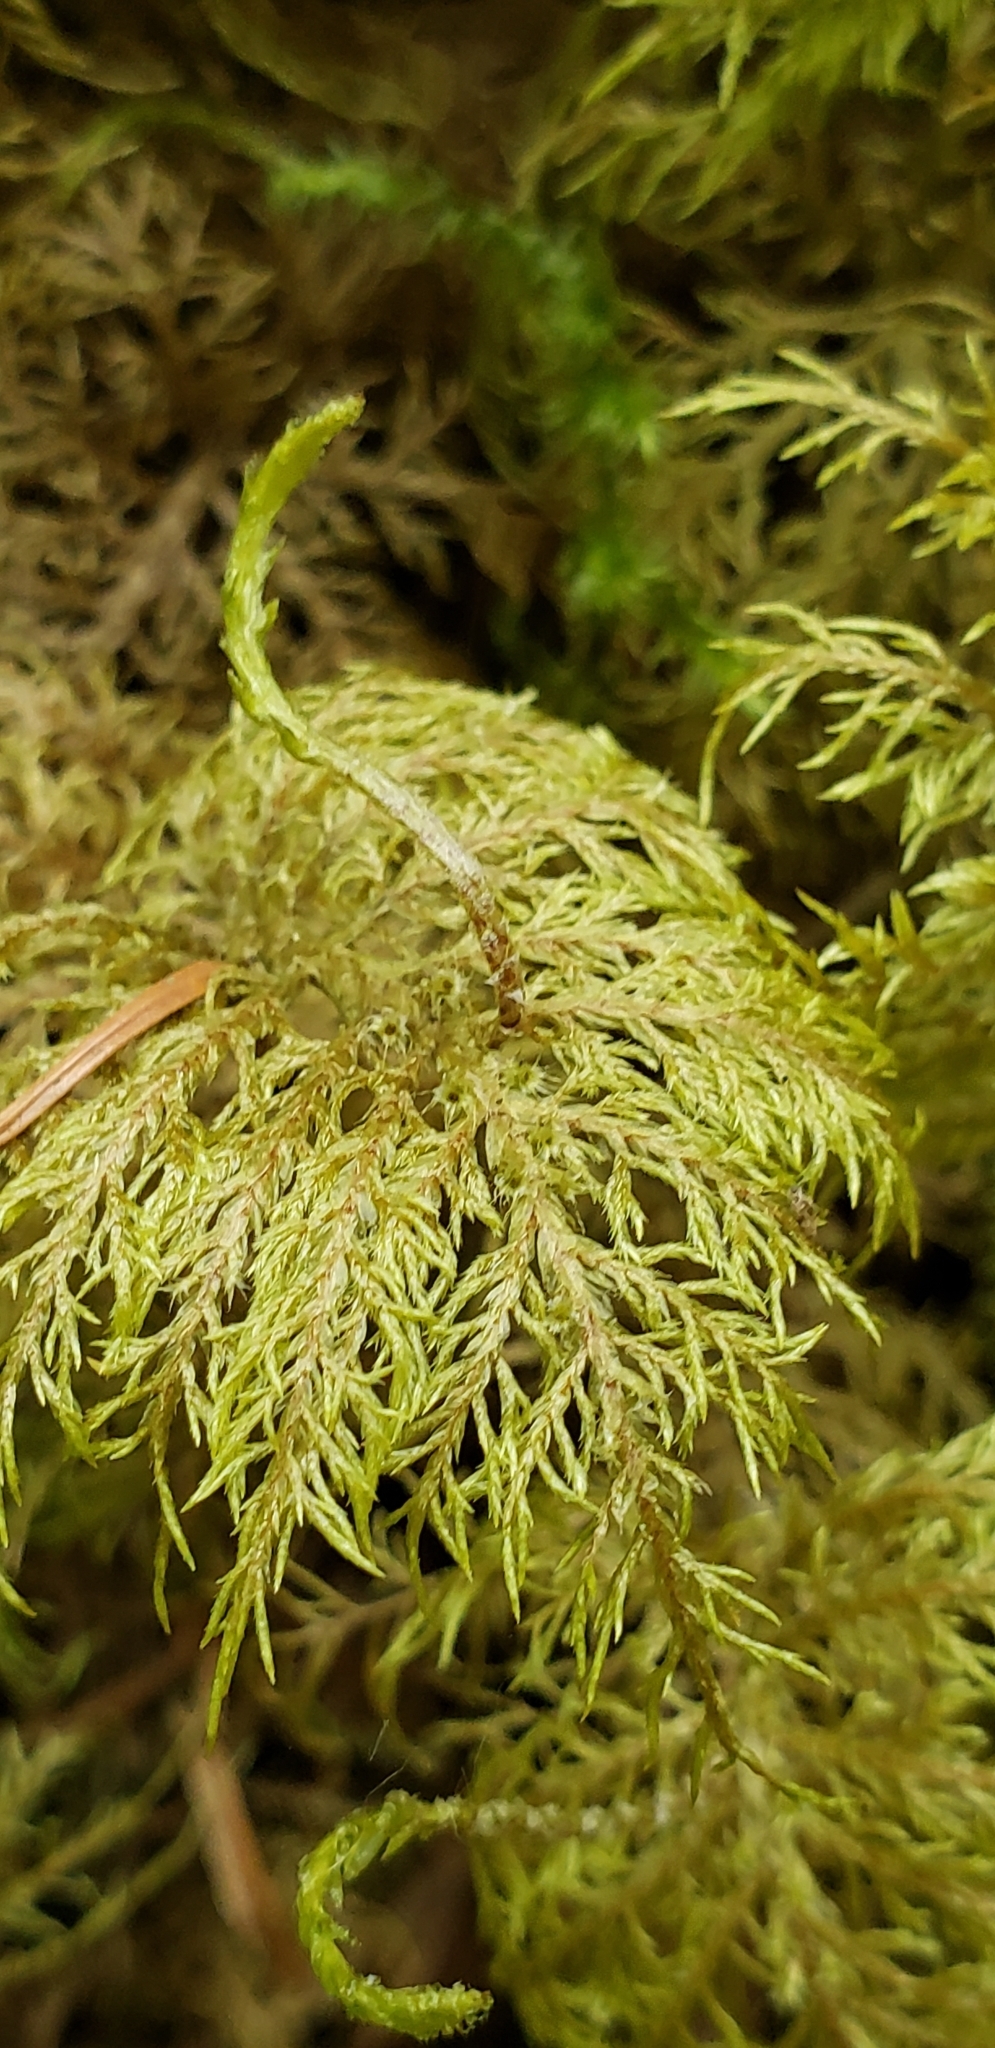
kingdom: Plantae
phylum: Bryophyta
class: Bryopsida
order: Hypnales
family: Hylocomiaceae
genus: Hylocomium
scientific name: Hylocomium splendens
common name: Stairstep moss
